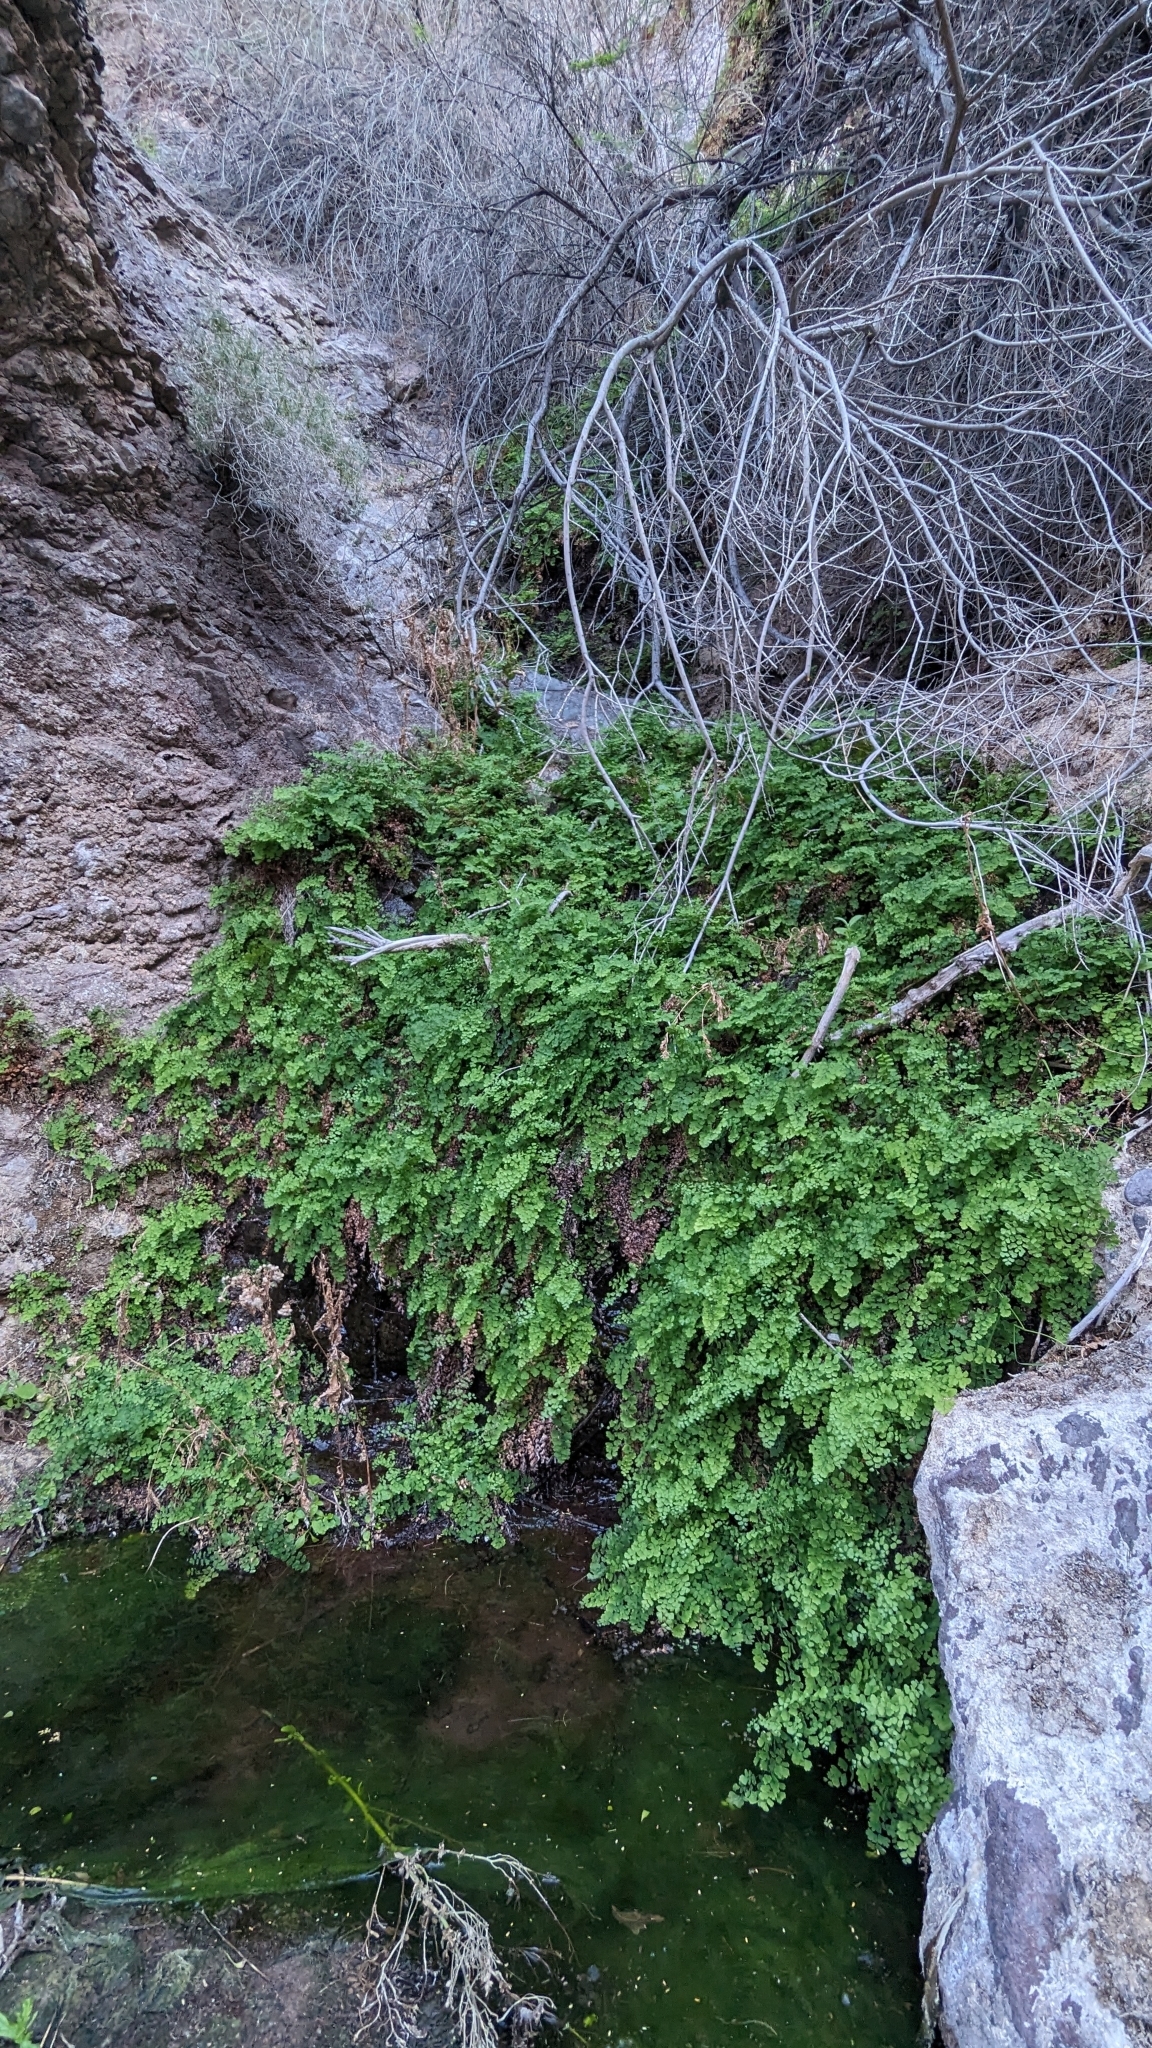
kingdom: Plantae
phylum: Tracheophyta
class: Polypodiopsida
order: Polypodiales
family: Pteridaceae
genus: Adiantum
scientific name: Adiantum capillus-veneris
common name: Maidenhair fern
